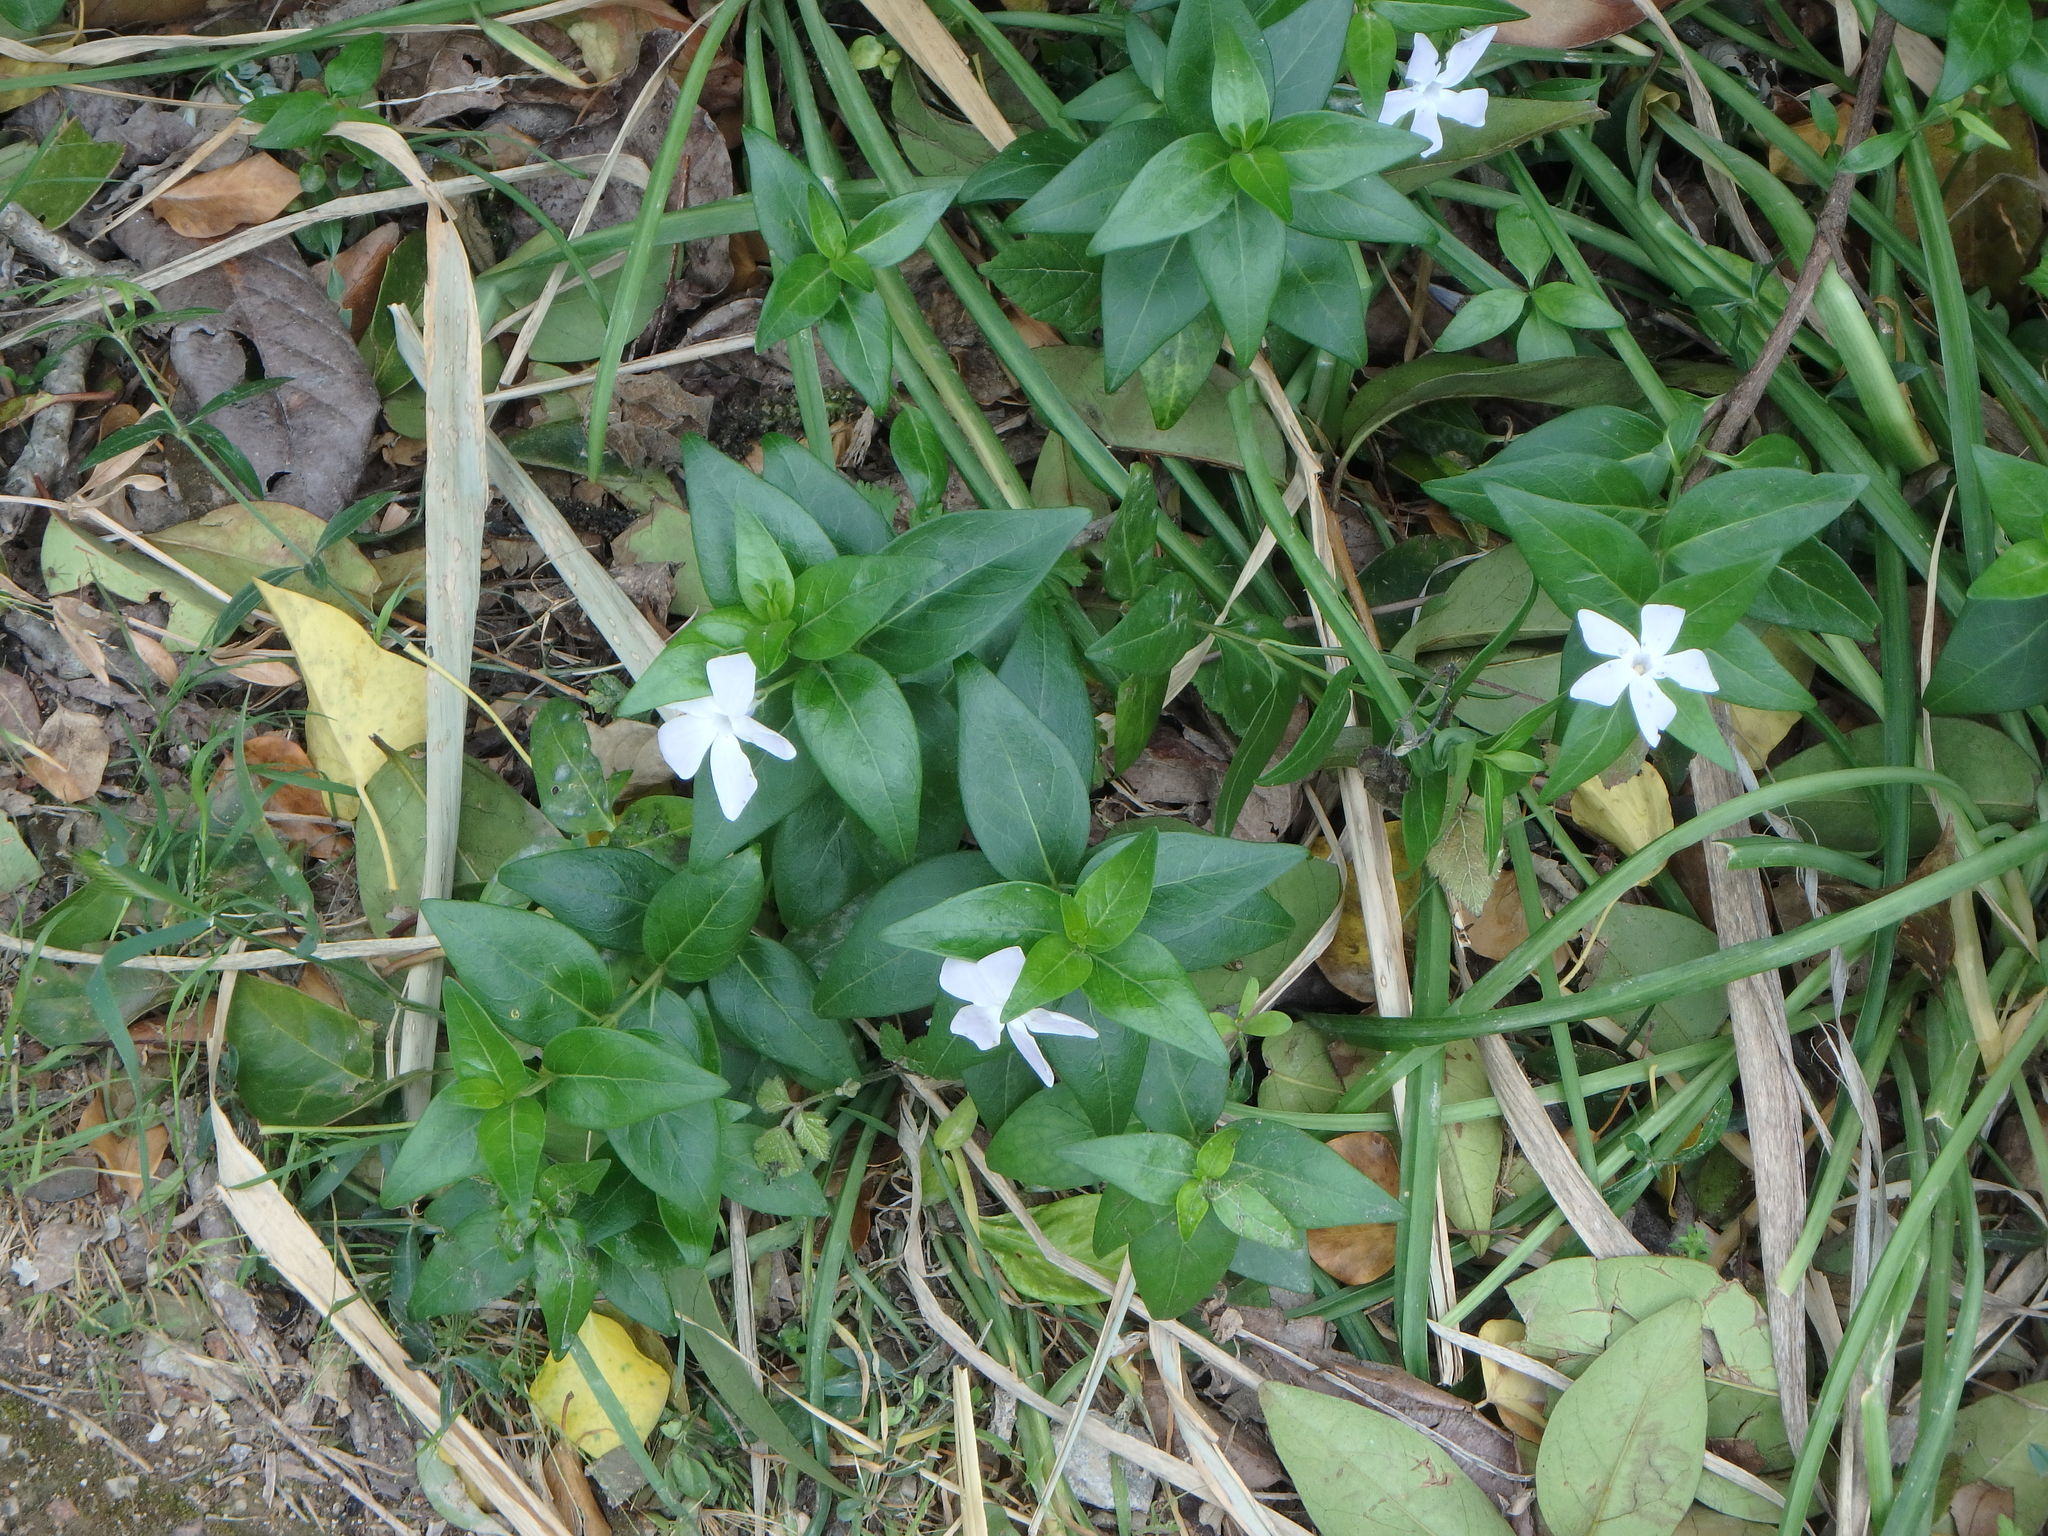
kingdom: Plantae
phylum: Tracheophyta
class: Magnoliopsida
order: Gentianales
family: Apocynaceae
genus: Vinca
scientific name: Vinca difformis
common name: Intermediate periwinkle
